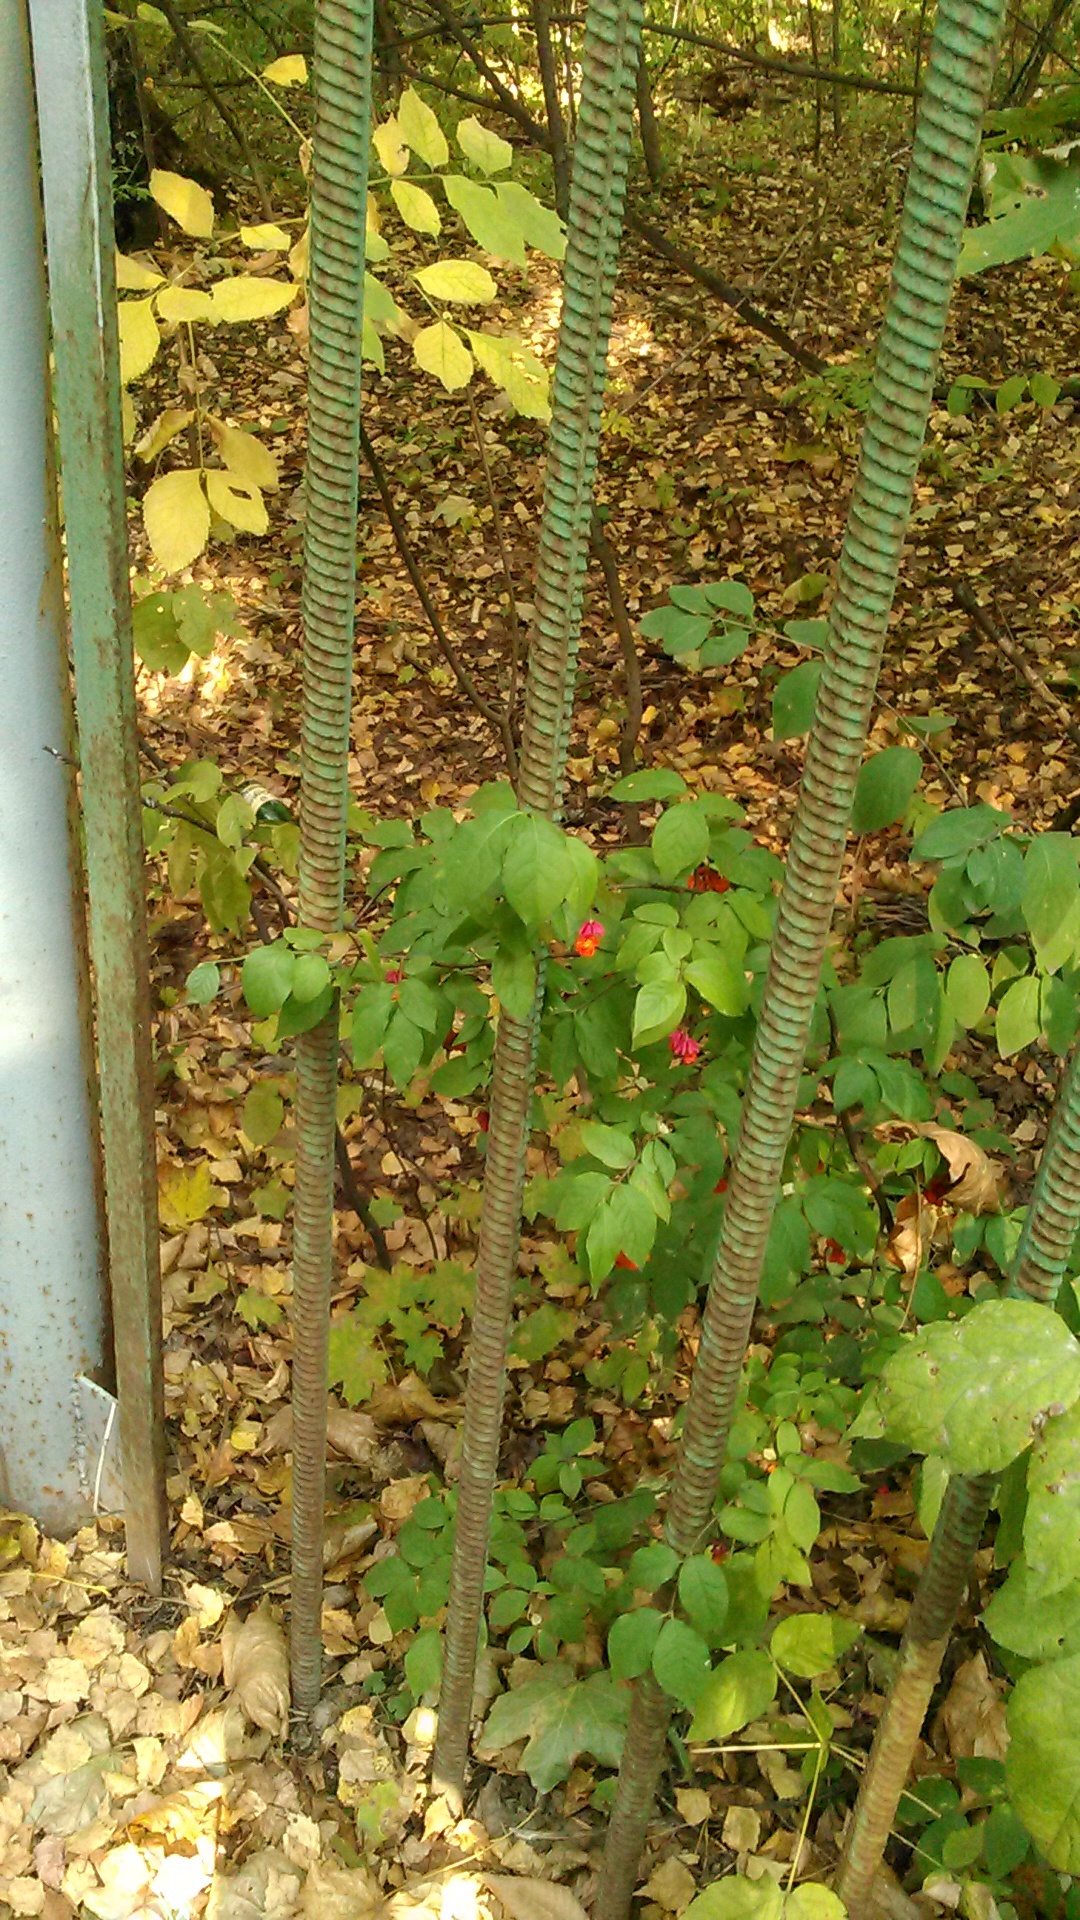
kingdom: Plantae
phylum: Tracheophyta
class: Magnoliopsida
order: Celastrales
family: Celastraceae
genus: Euonymus
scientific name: Euonymus verrucosus
